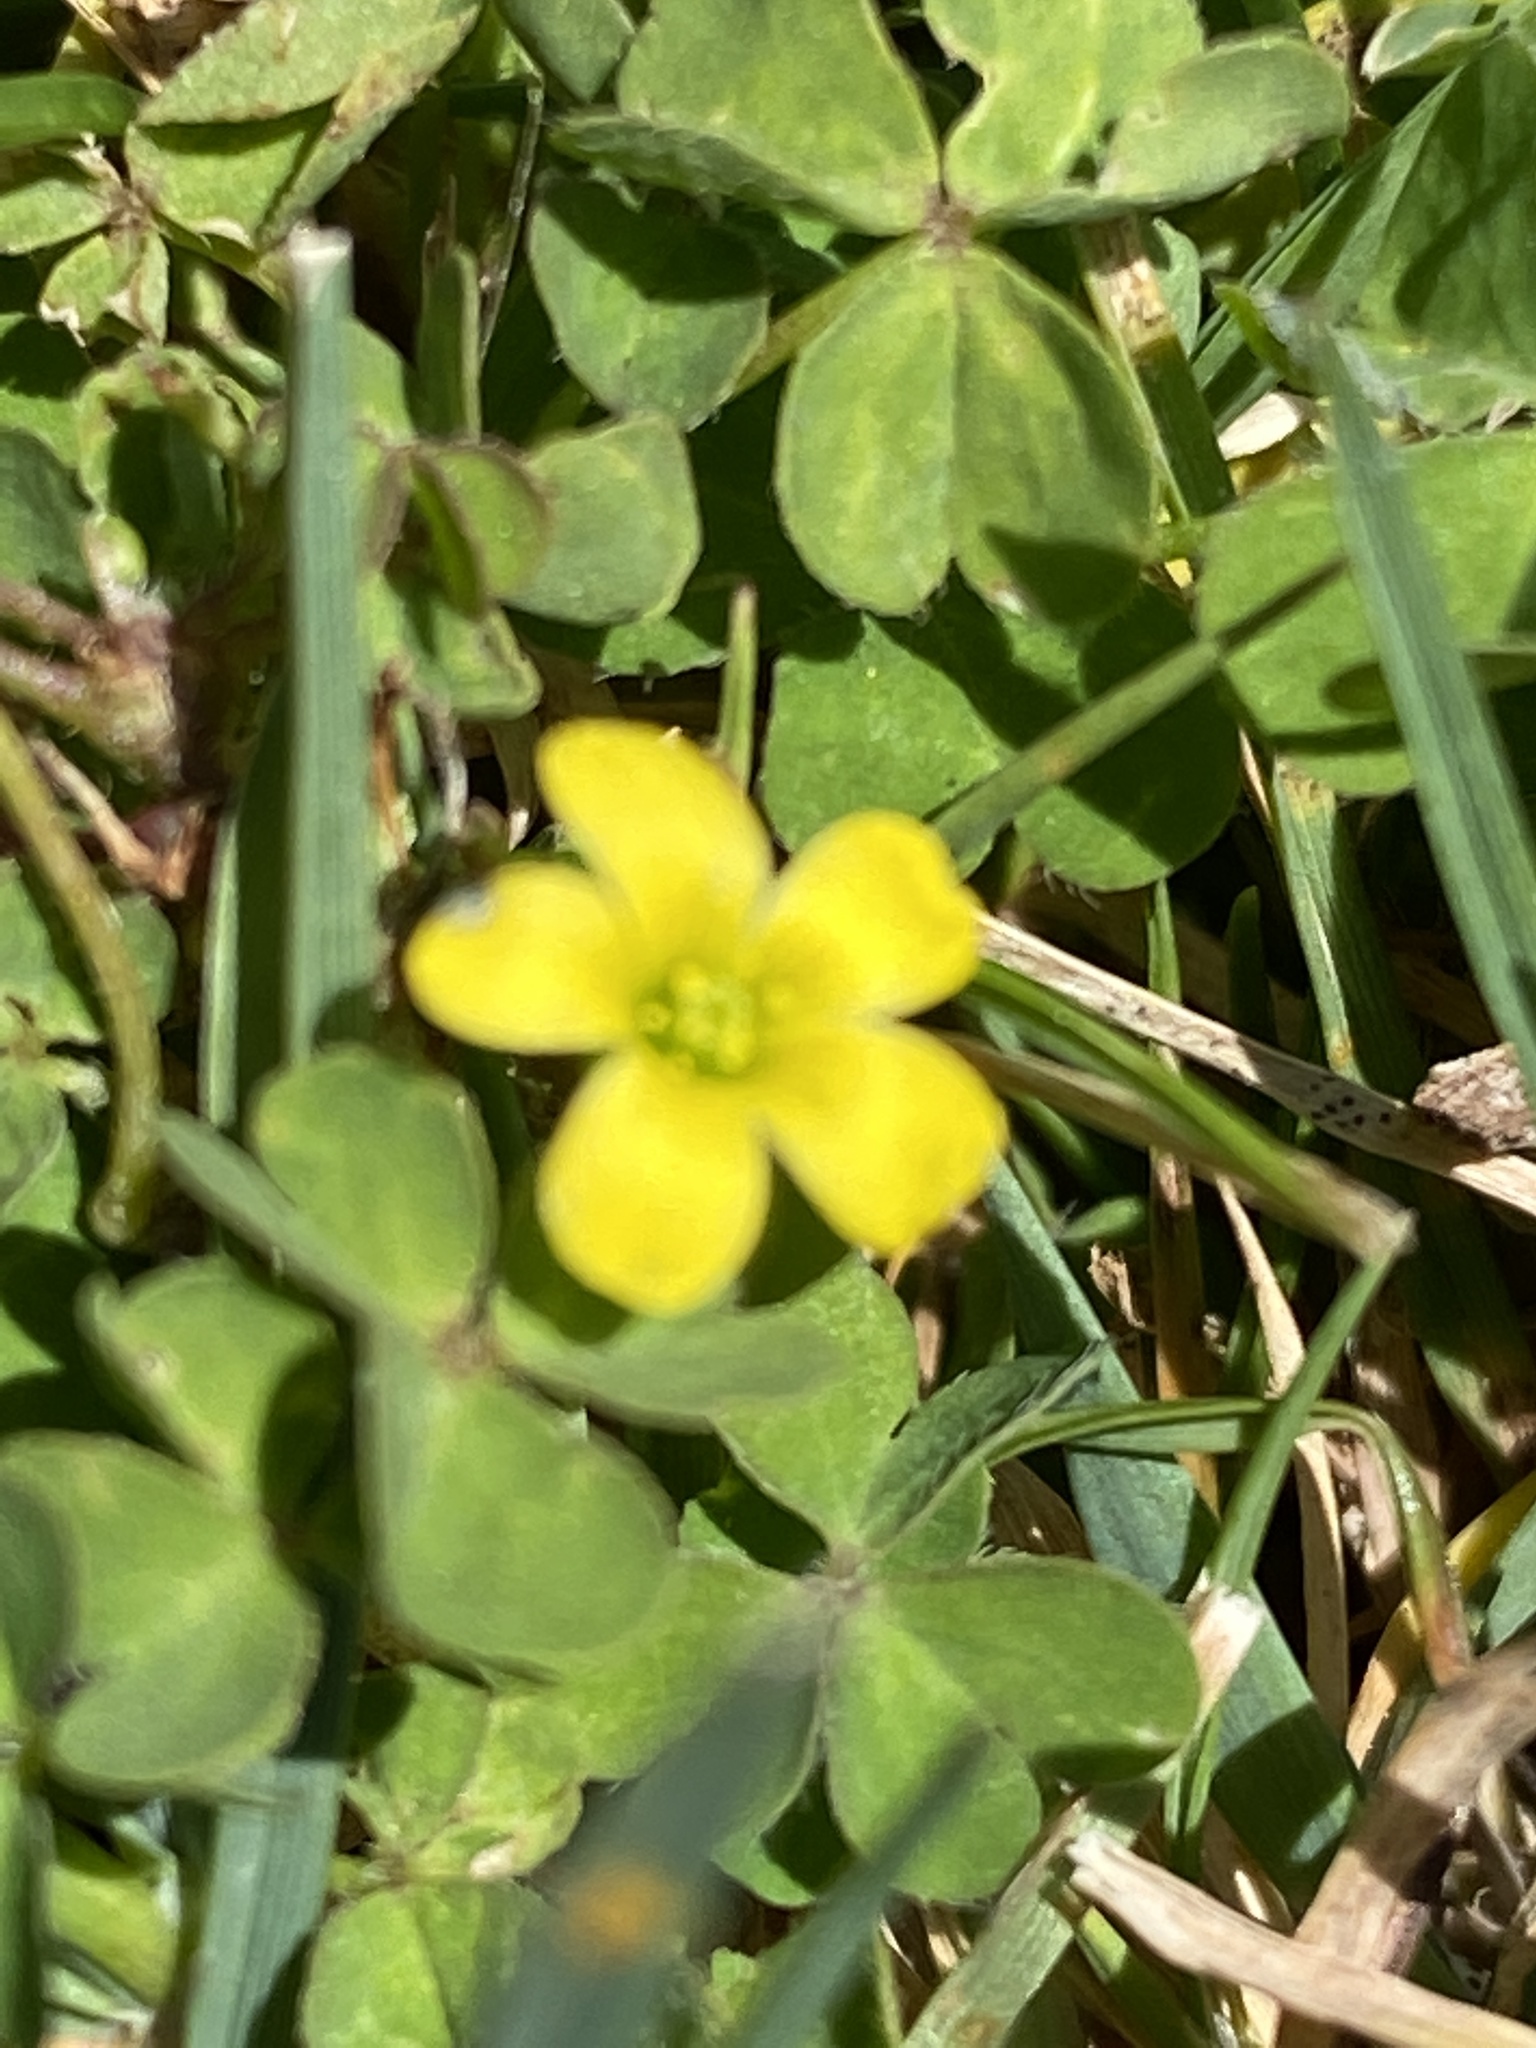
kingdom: Plantae
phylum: Tracheophyta
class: Magnoliopsida
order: Oxalidales
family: Oxalidaceae
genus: Oxalis
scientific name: Oxalis corniculata
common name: Procumbent yellow-sorrel
